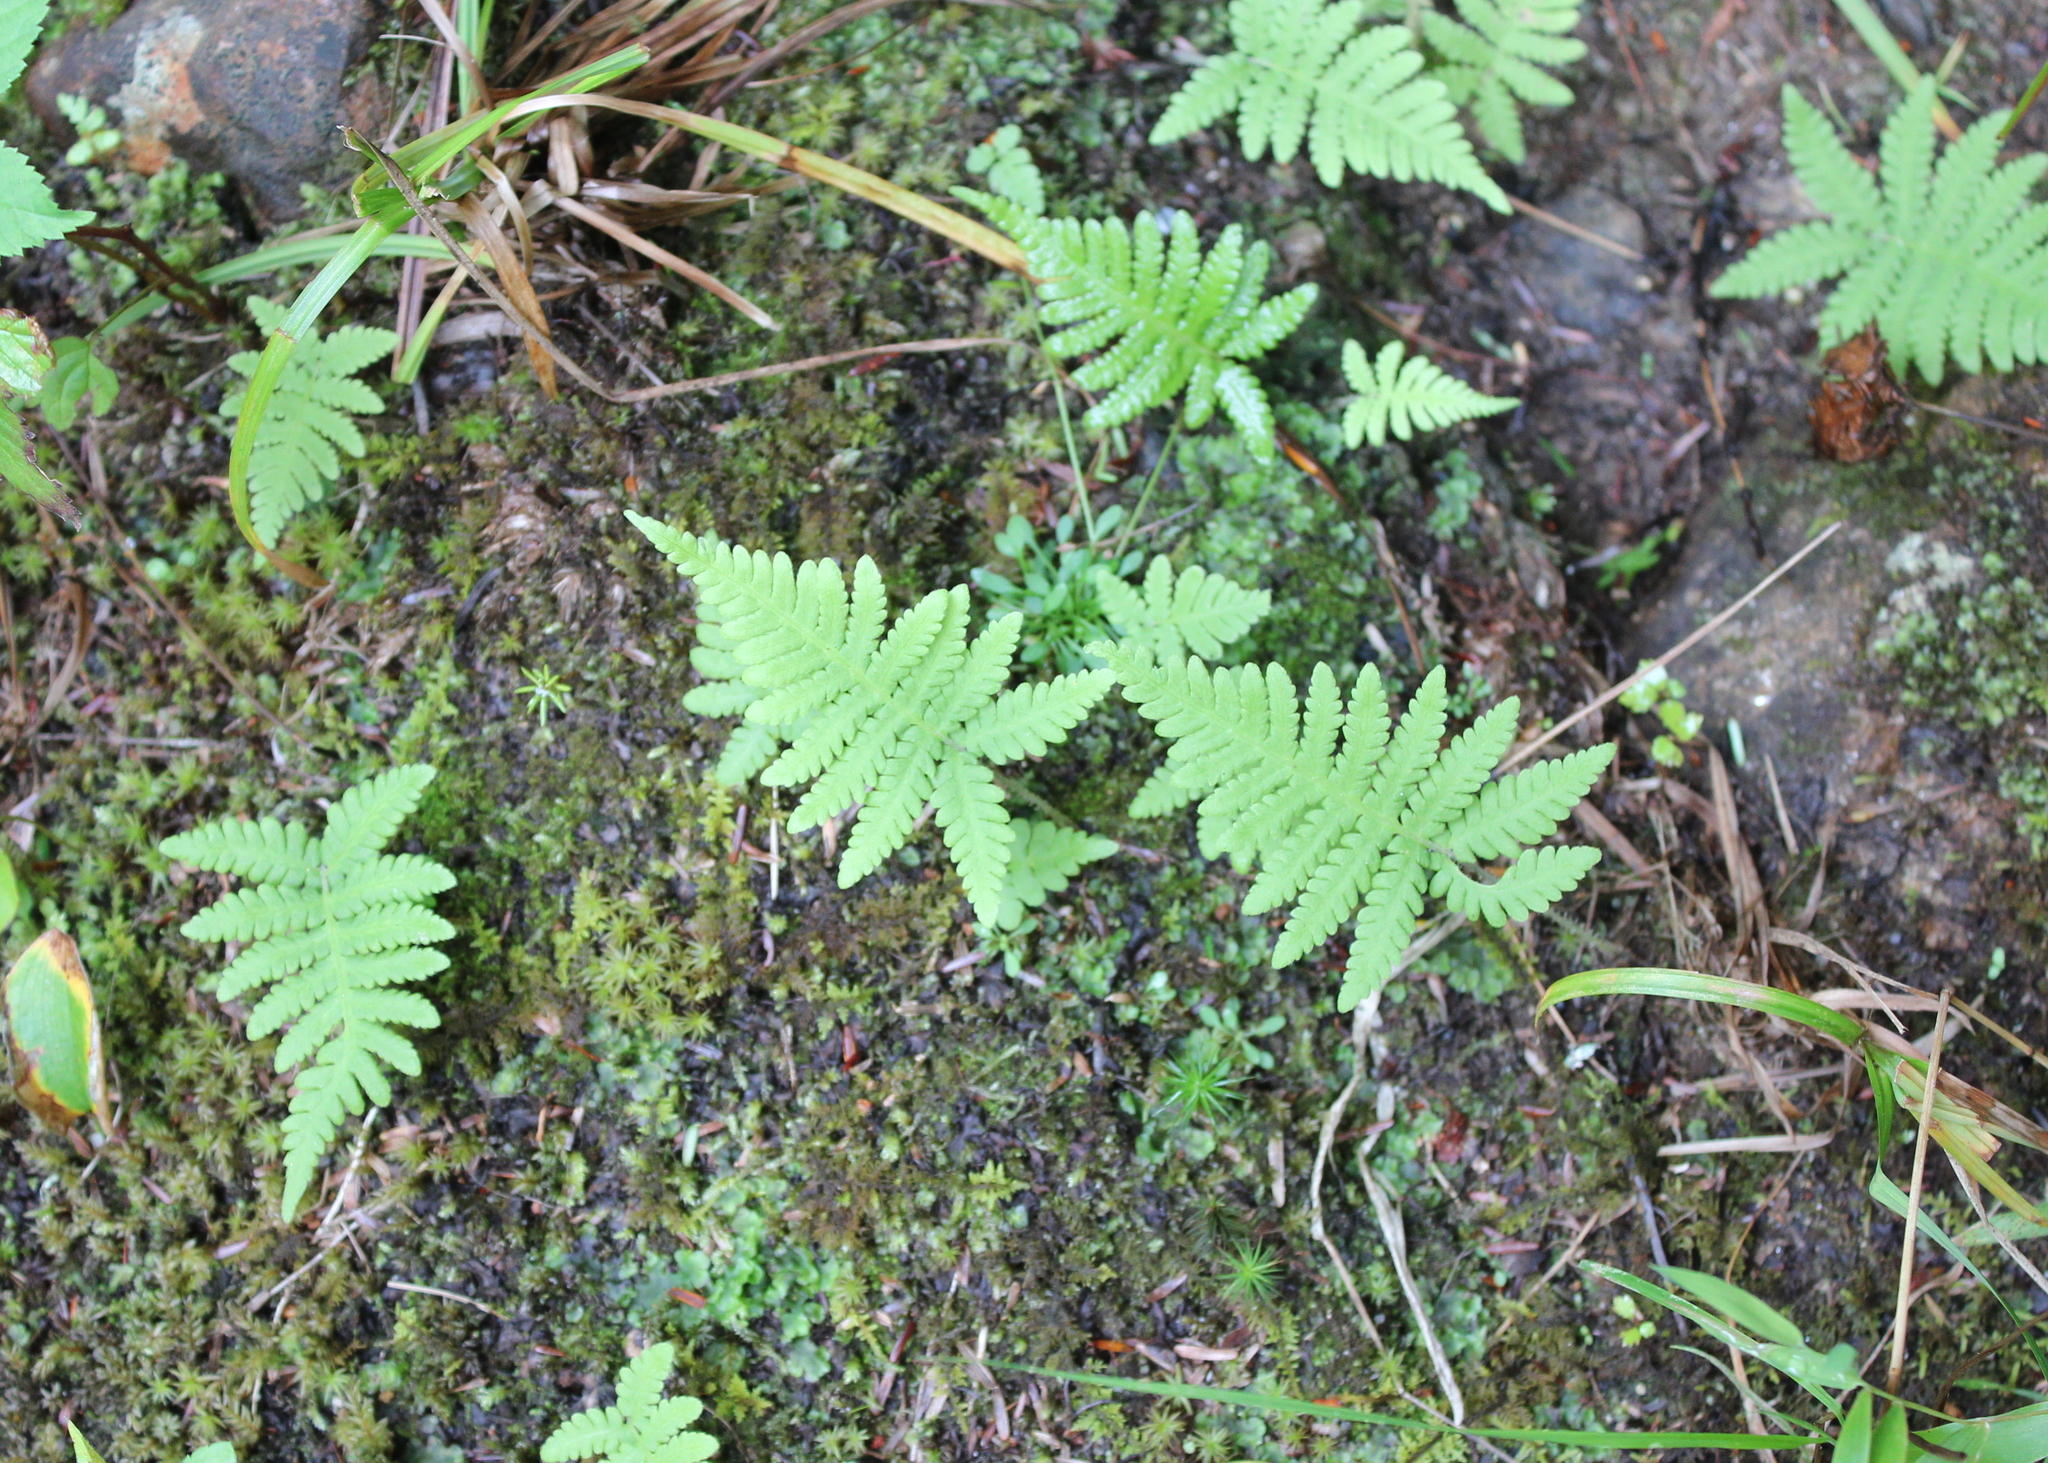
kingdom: Plantae
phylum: Tracheophyta
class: Polypodiopsida
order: Polypodiales
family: Thelypteridaceae
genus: Phegopteris
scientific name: Phegopteris connectilis
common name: Beech fern
